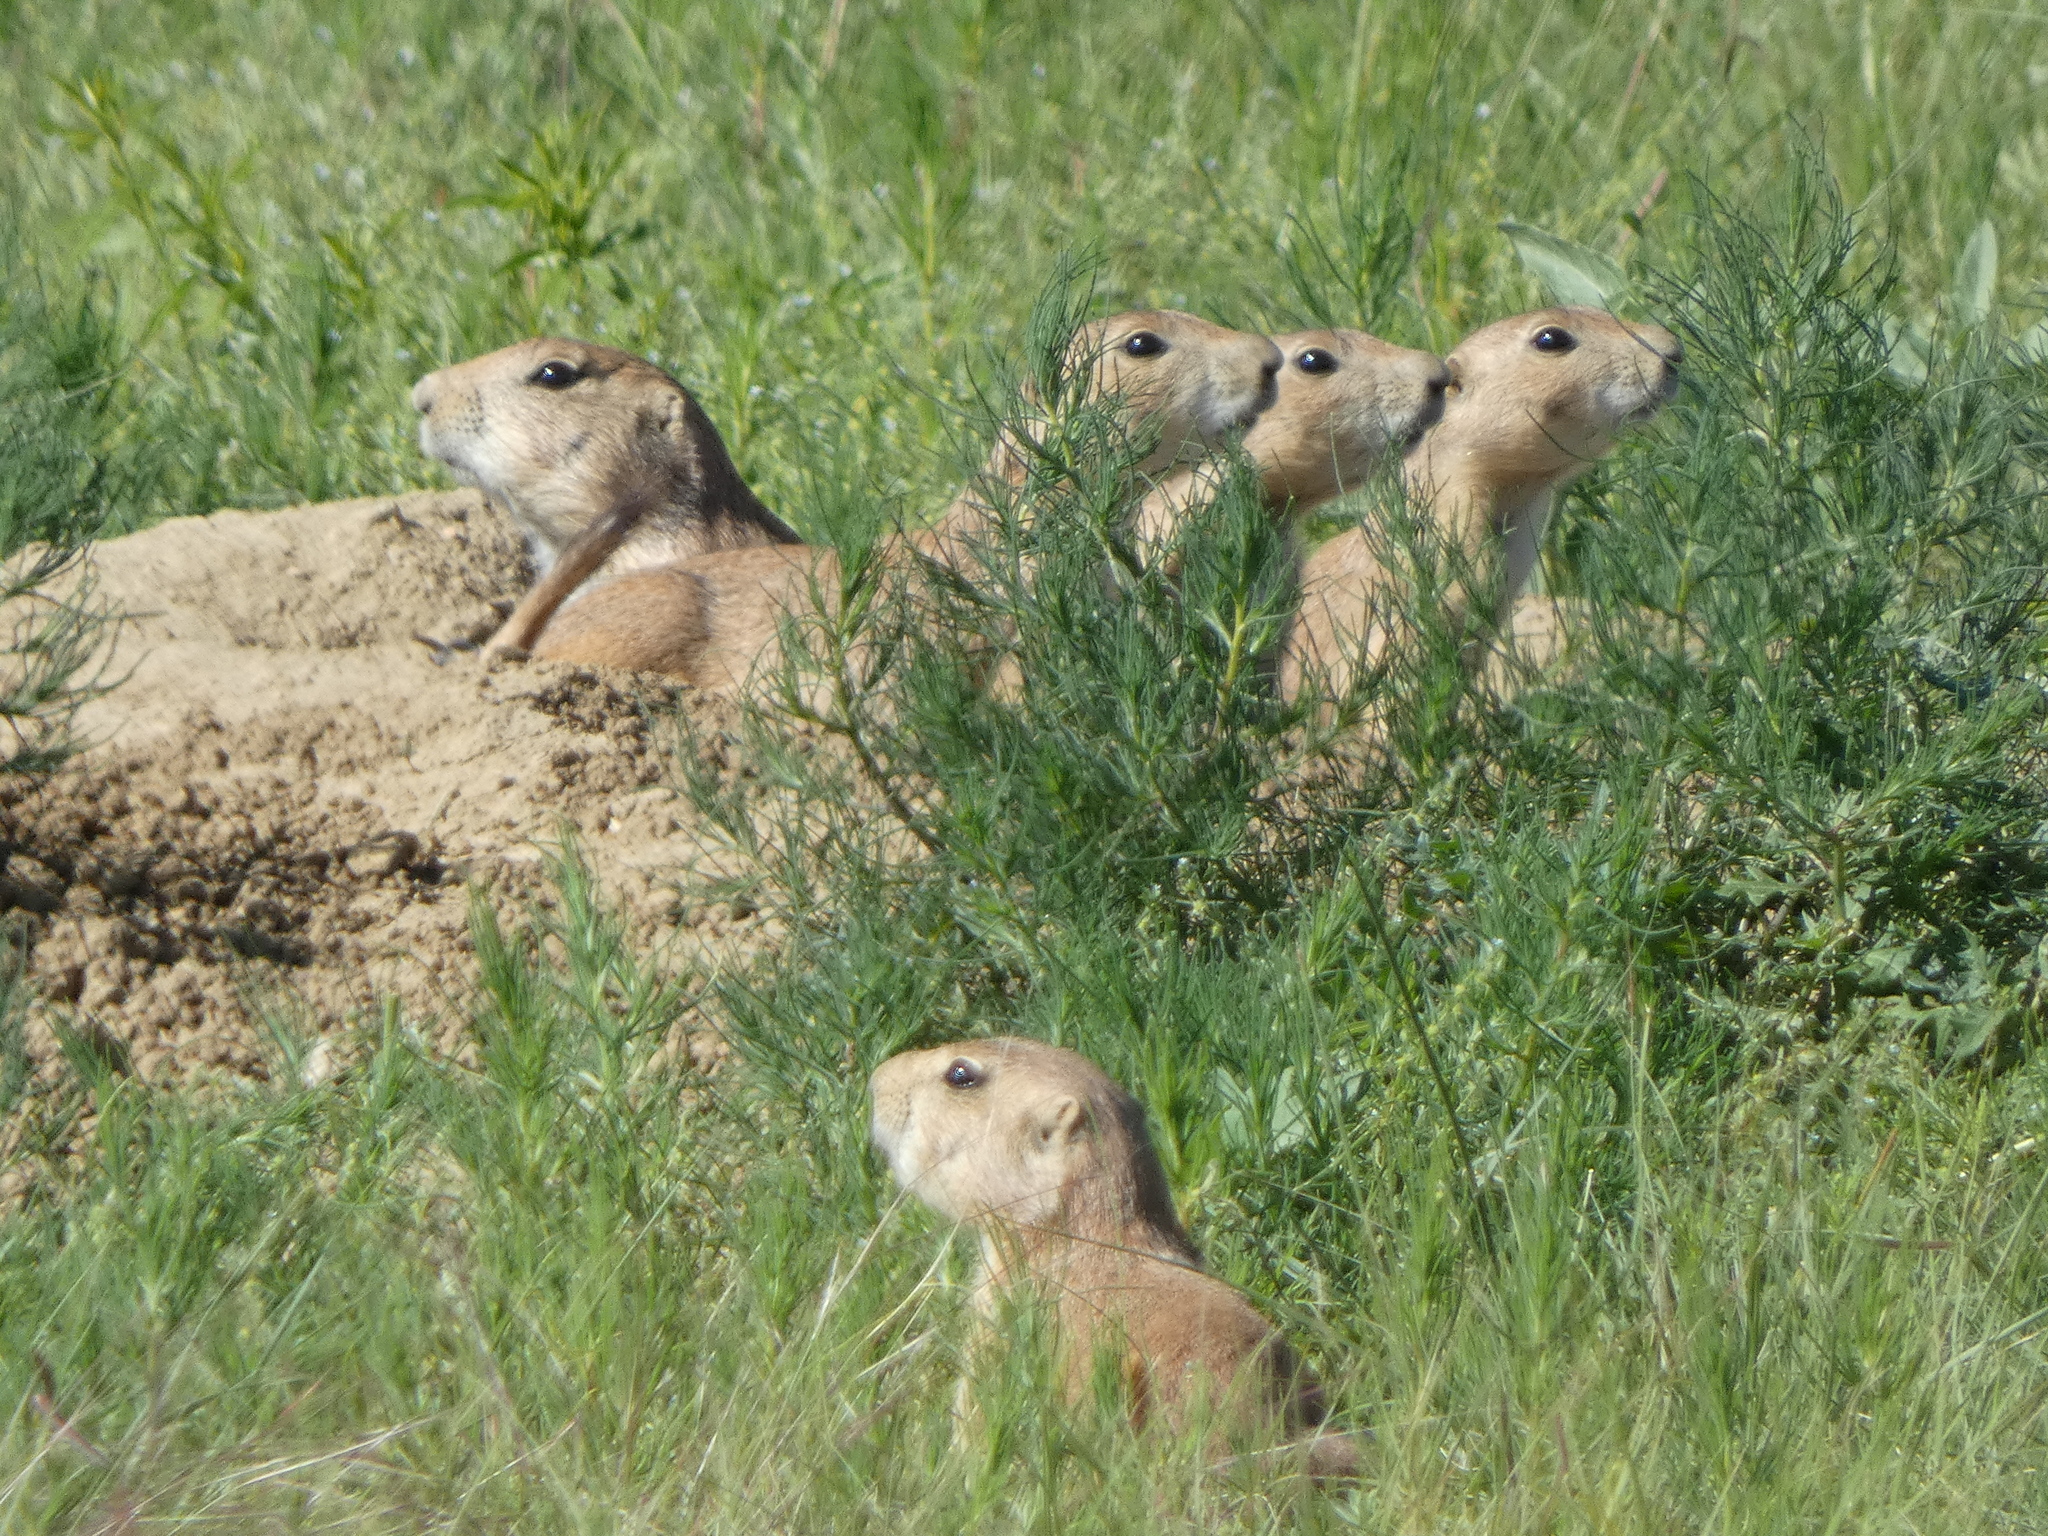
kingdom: Animalia
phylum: Chordata
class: Mammalia
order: Rodentia
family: Sciuridae
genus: Cynomys
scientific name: Cynomys ludovicianus
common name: Black-tailed prairie dog
